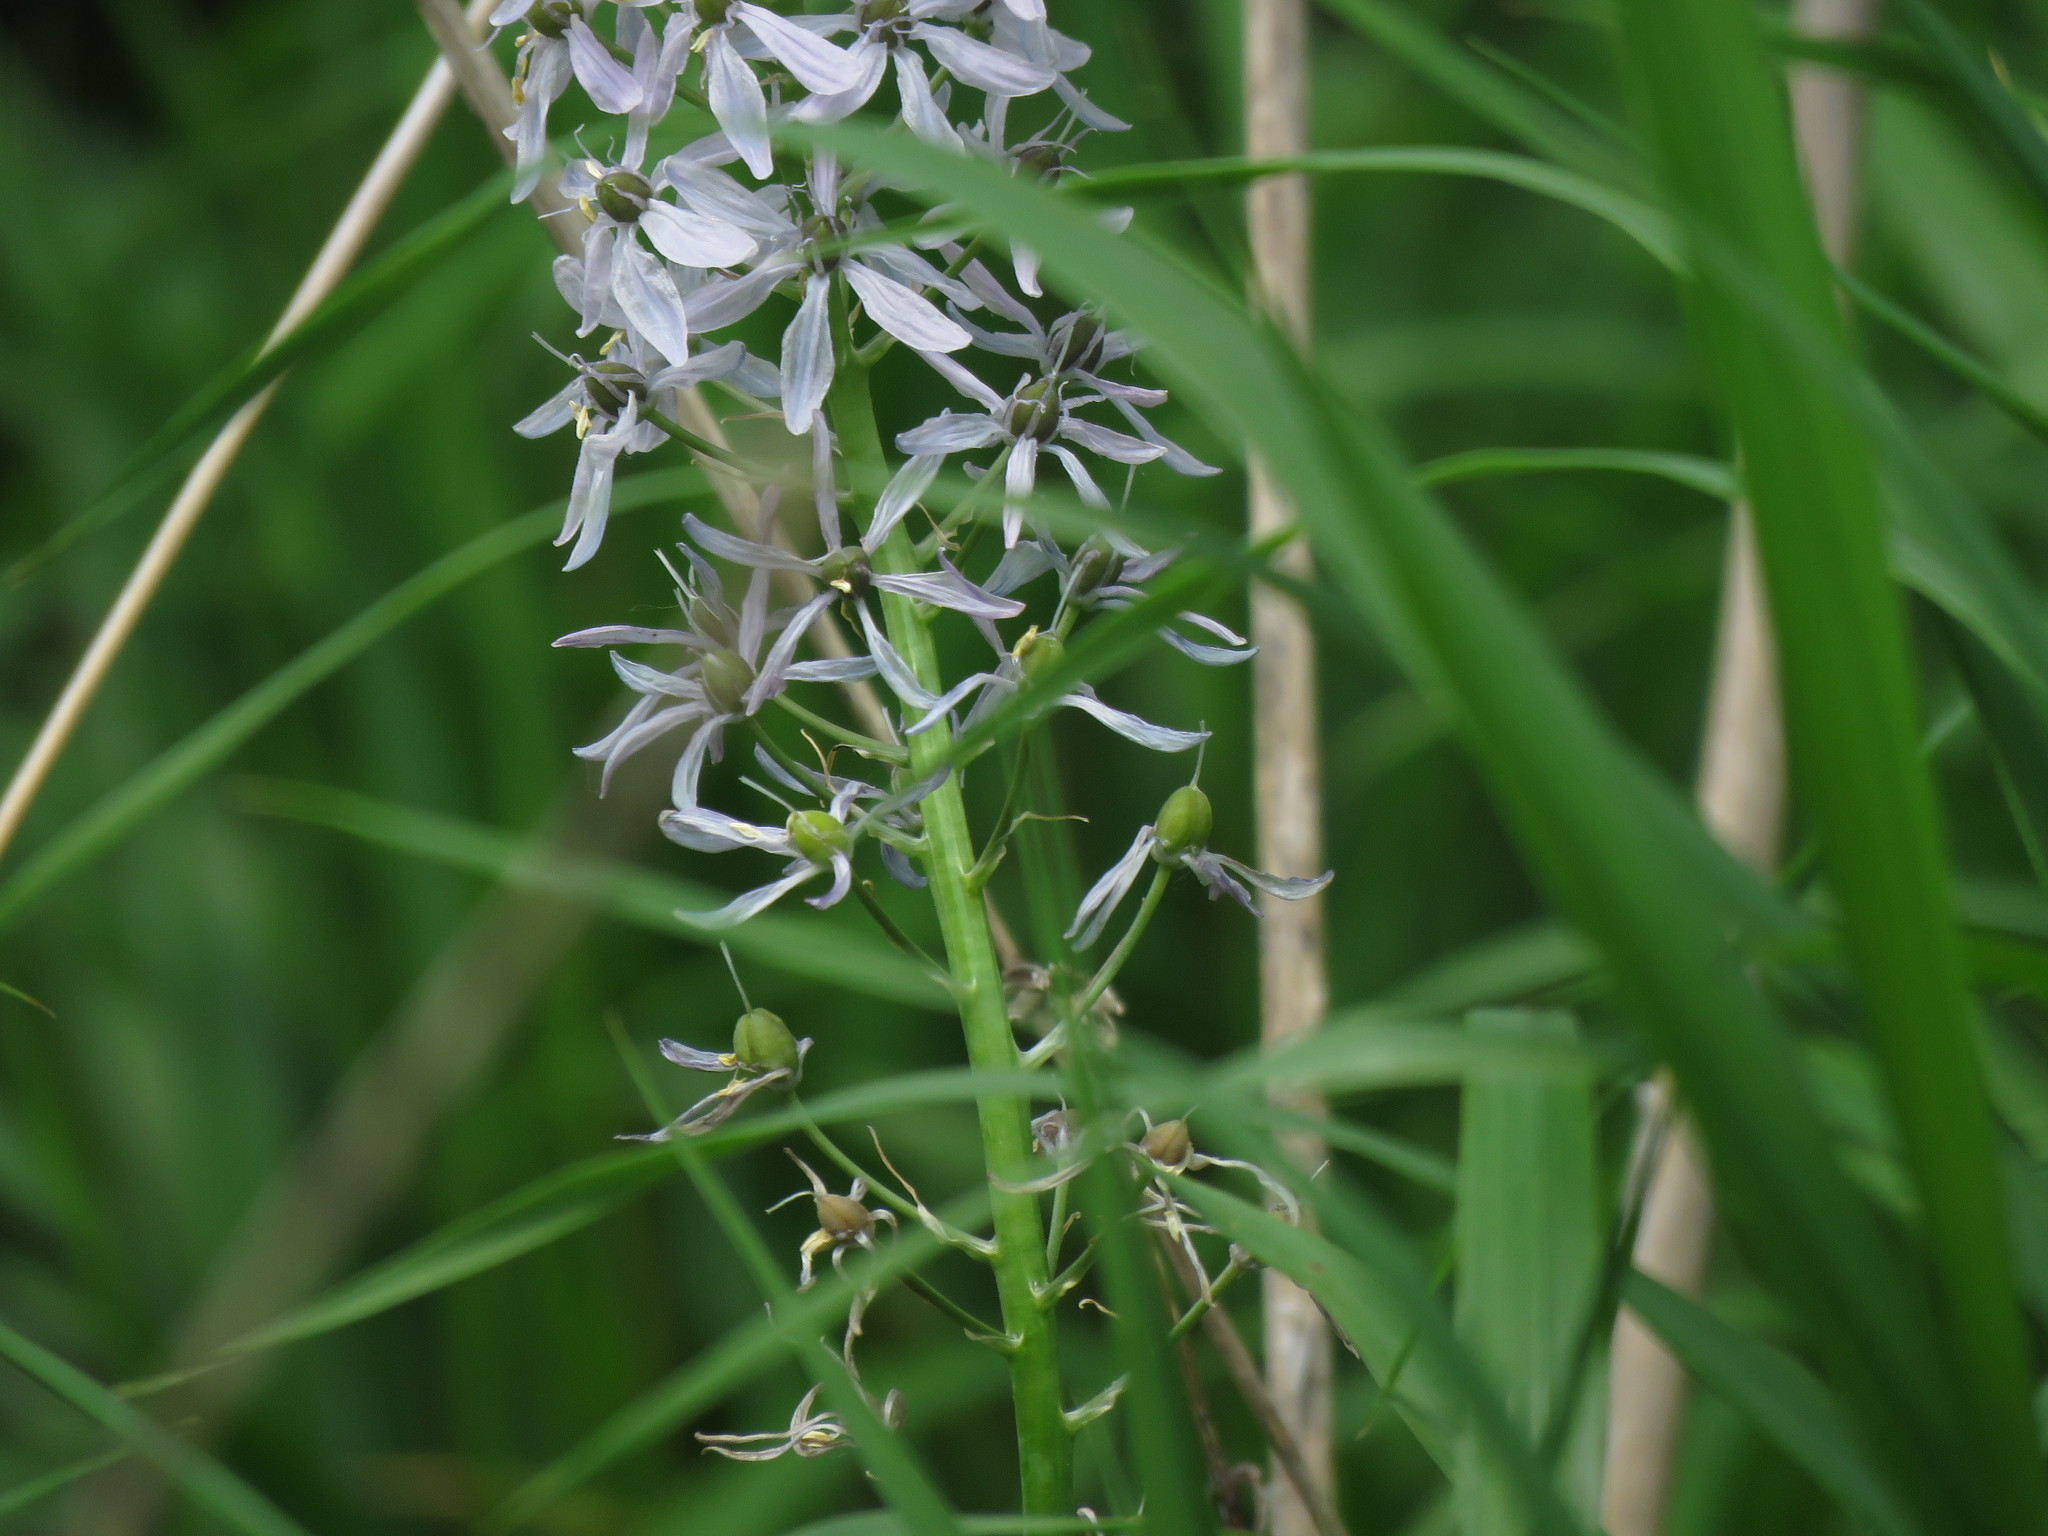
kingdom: Plantae
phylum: Tracheophyta
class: Liliopsida
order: Asparagales
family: Asparagaceae
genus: Camassia
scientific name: Camassia scilloides
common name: Wild hyacinth
